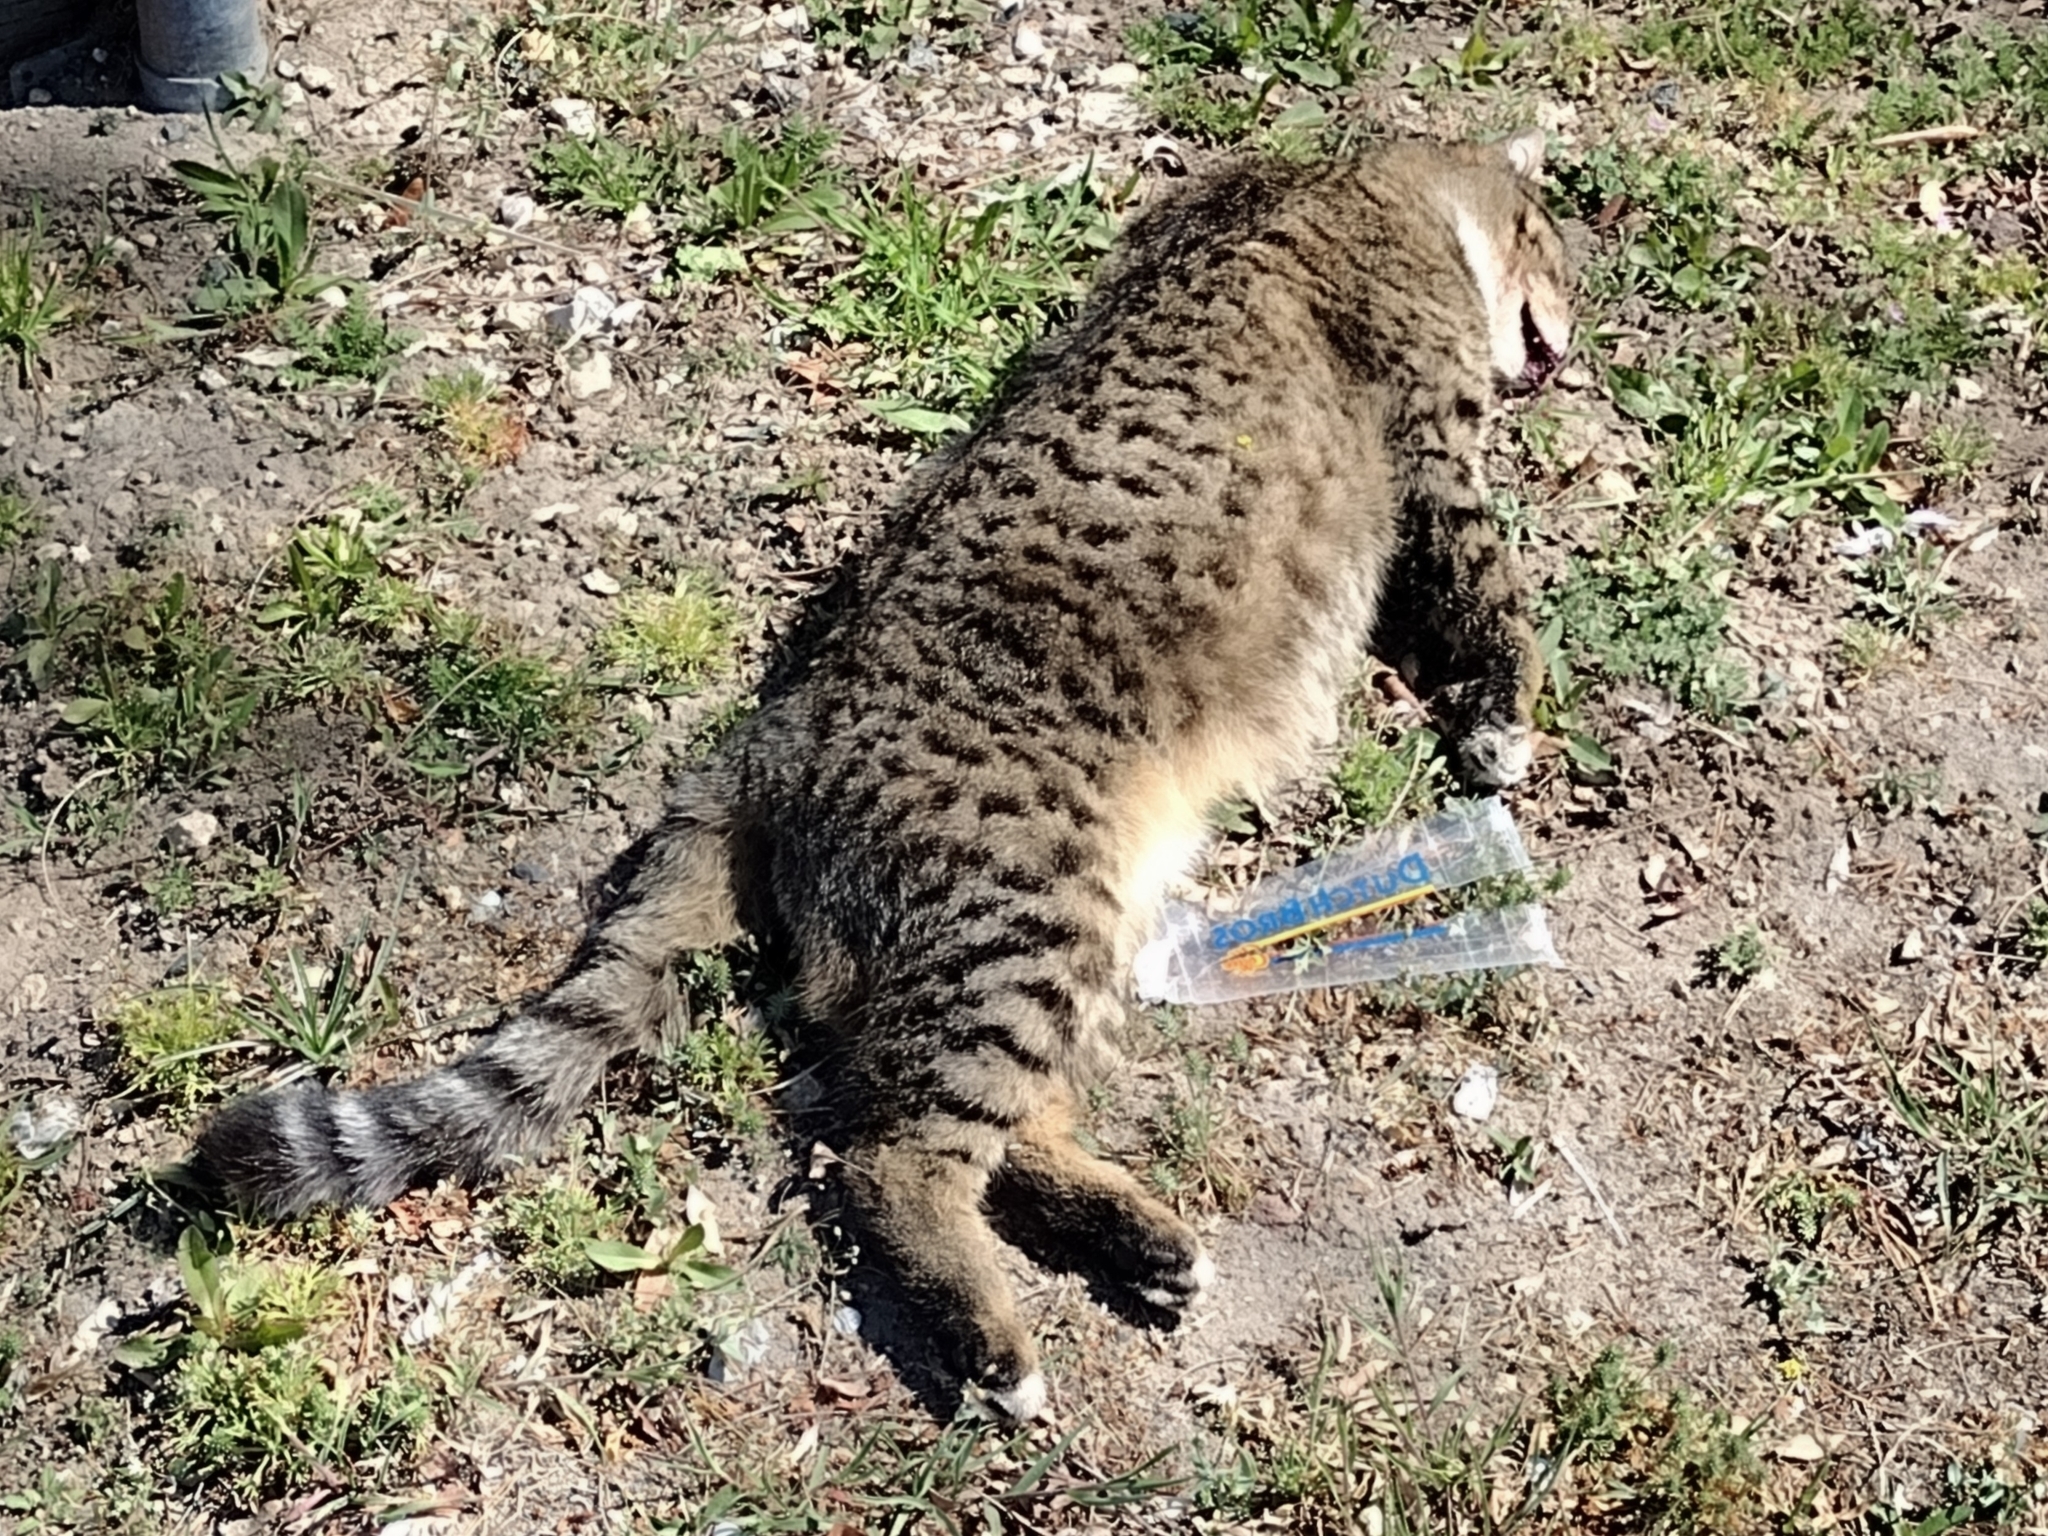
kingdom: Animalia
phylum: Chordata
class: Mammalia
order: Carnivora
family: Felidae
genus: Felis
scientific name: Felis catus
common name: Domestic cat
